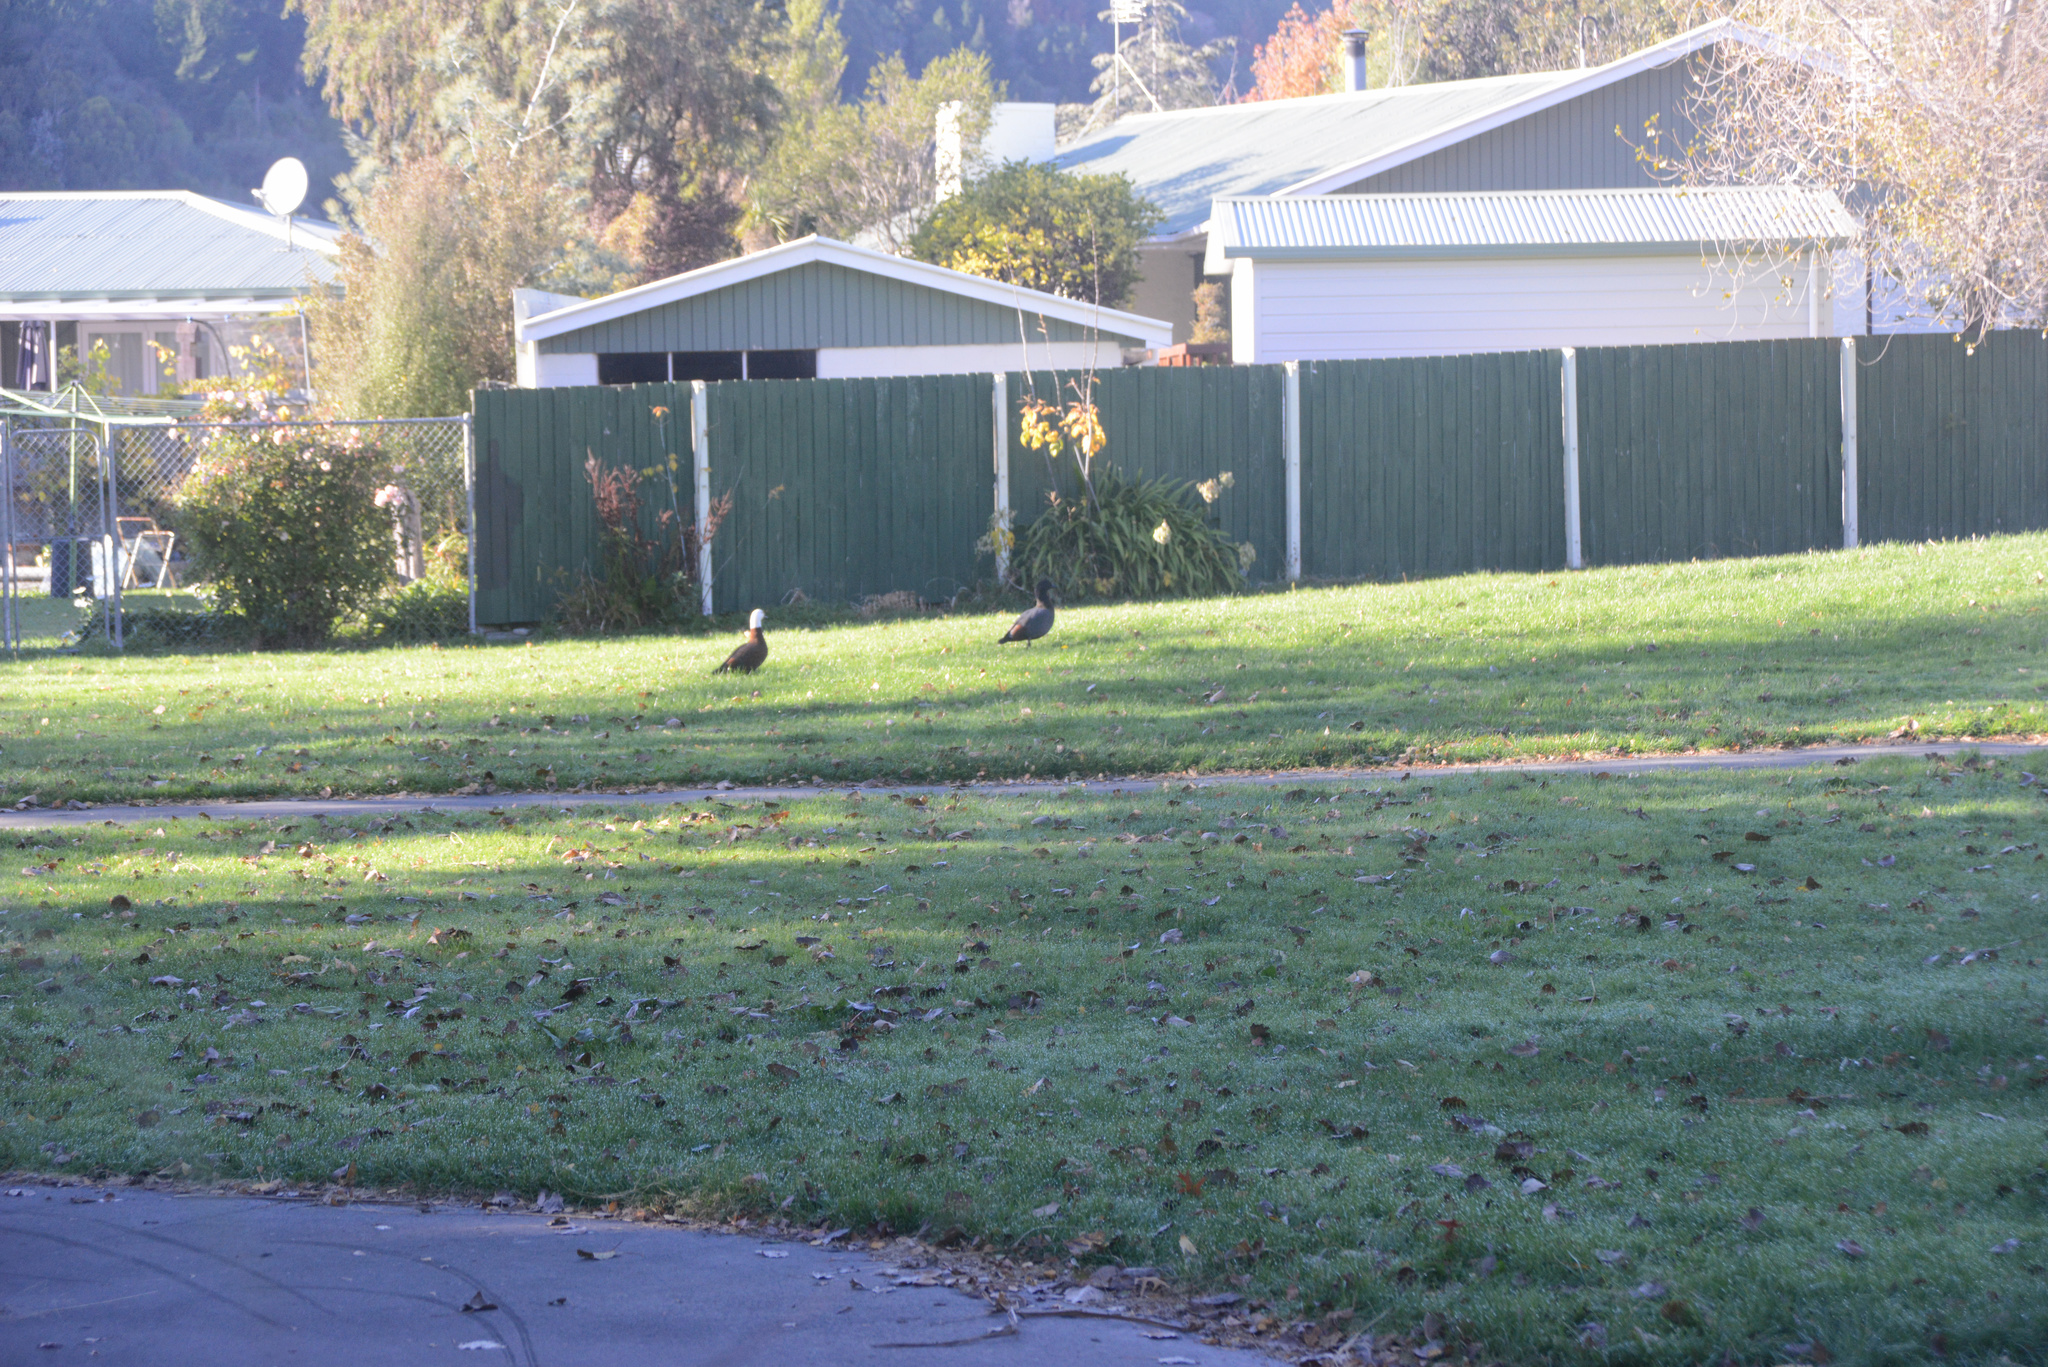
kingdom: Animalia
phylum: Chordata
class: Aves
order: Anseriformes
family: Anatidae
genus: Tadorna
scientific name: Tadorna variegata
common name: Paradise shelduck
